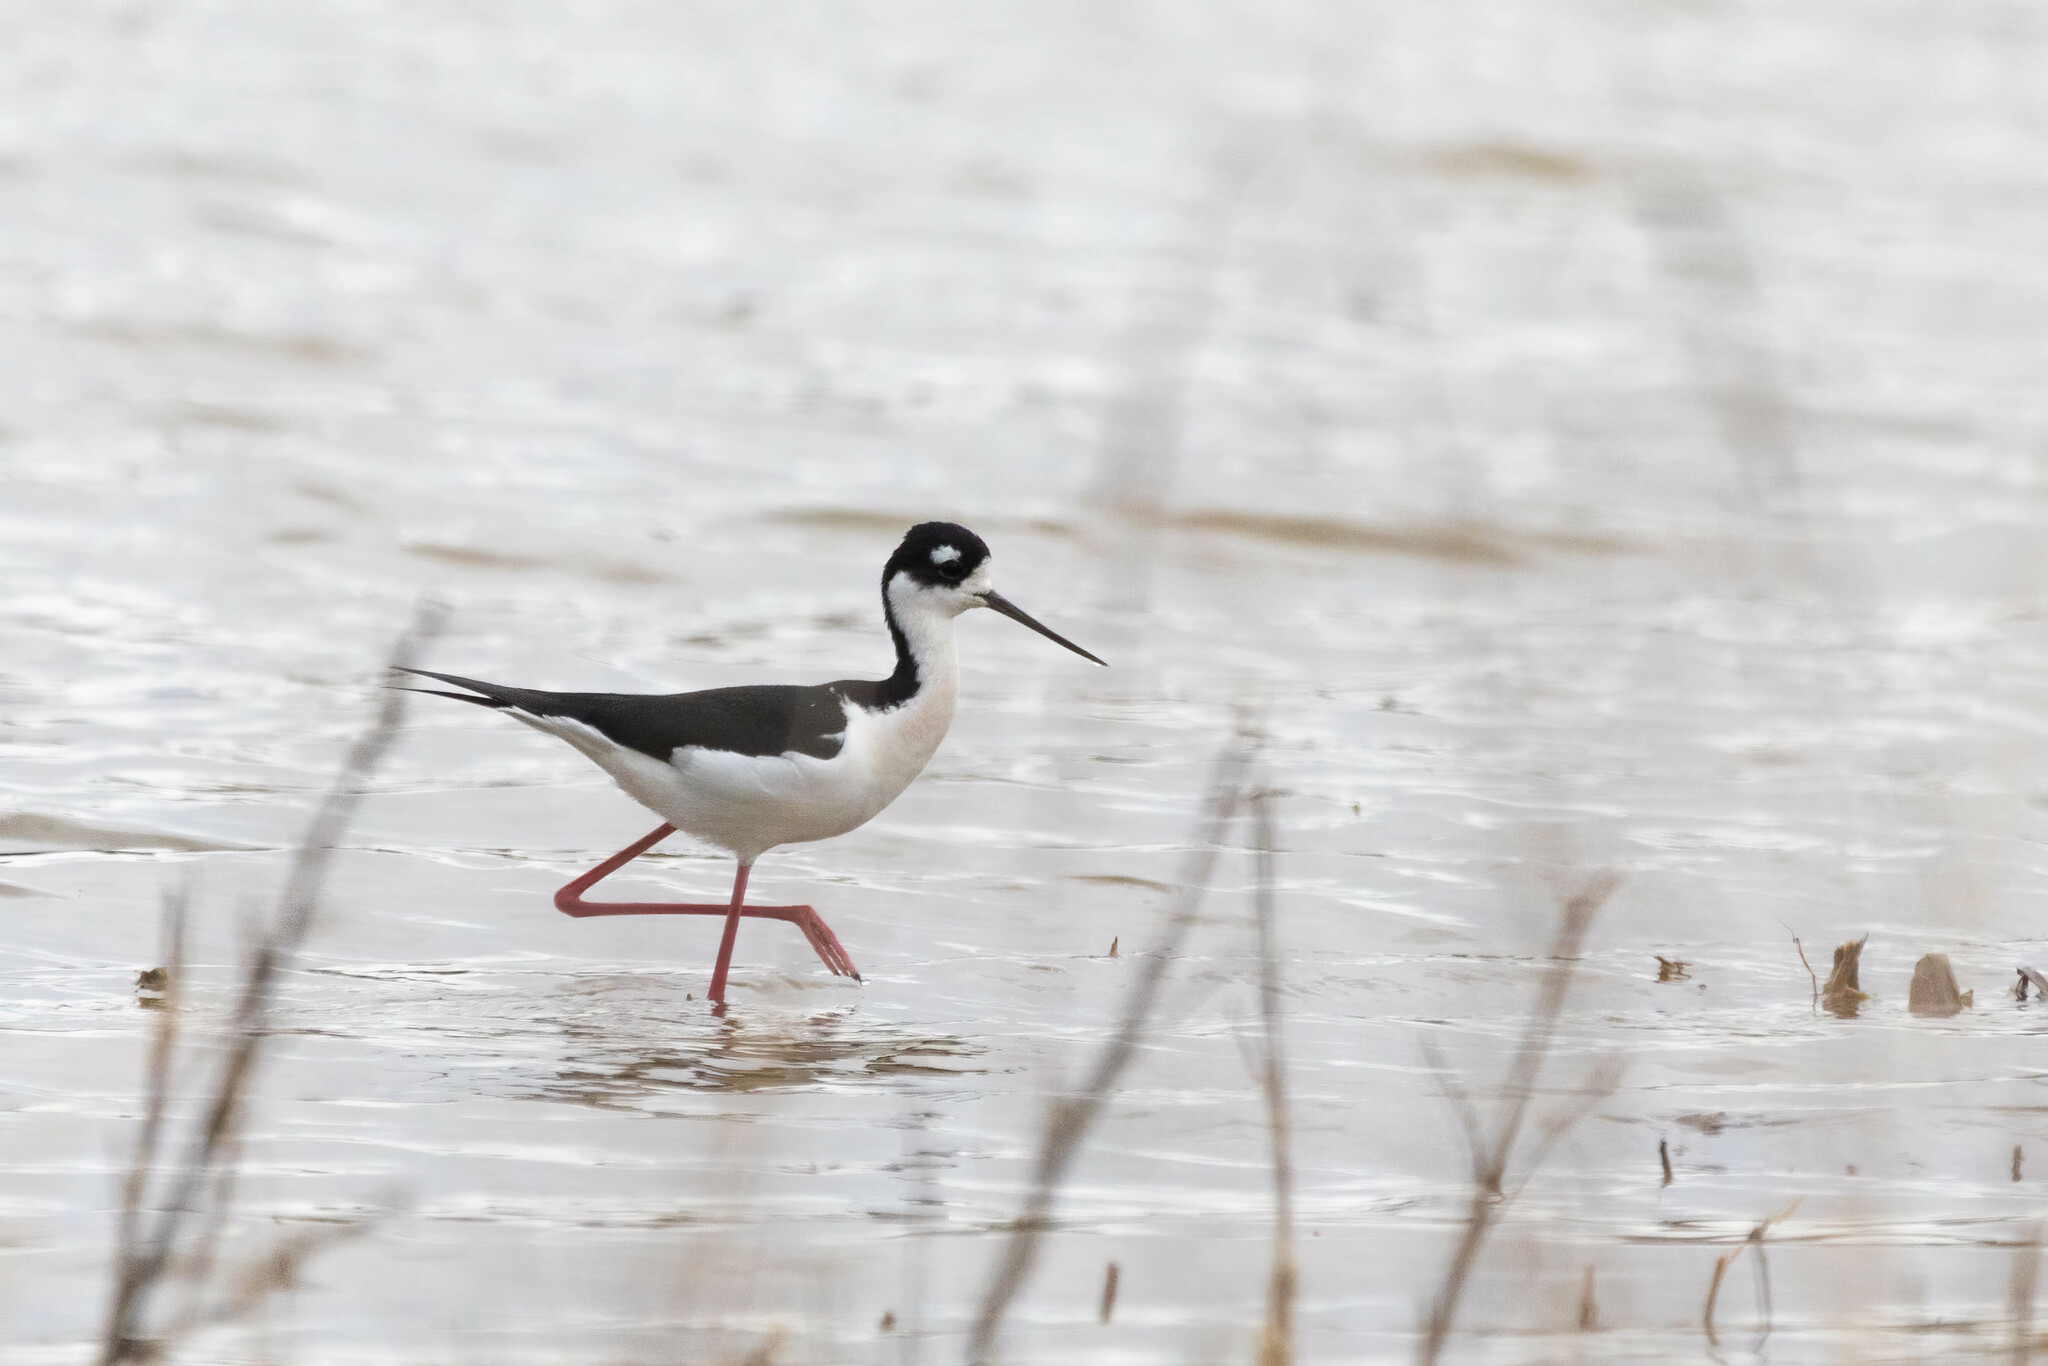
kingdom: Animalia
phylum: Chordata
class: Aves
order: Charadriiformes
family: Recurvirostridae
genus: Himantopus
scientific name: Himantopus mexicanus
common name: Black-necked stilt
